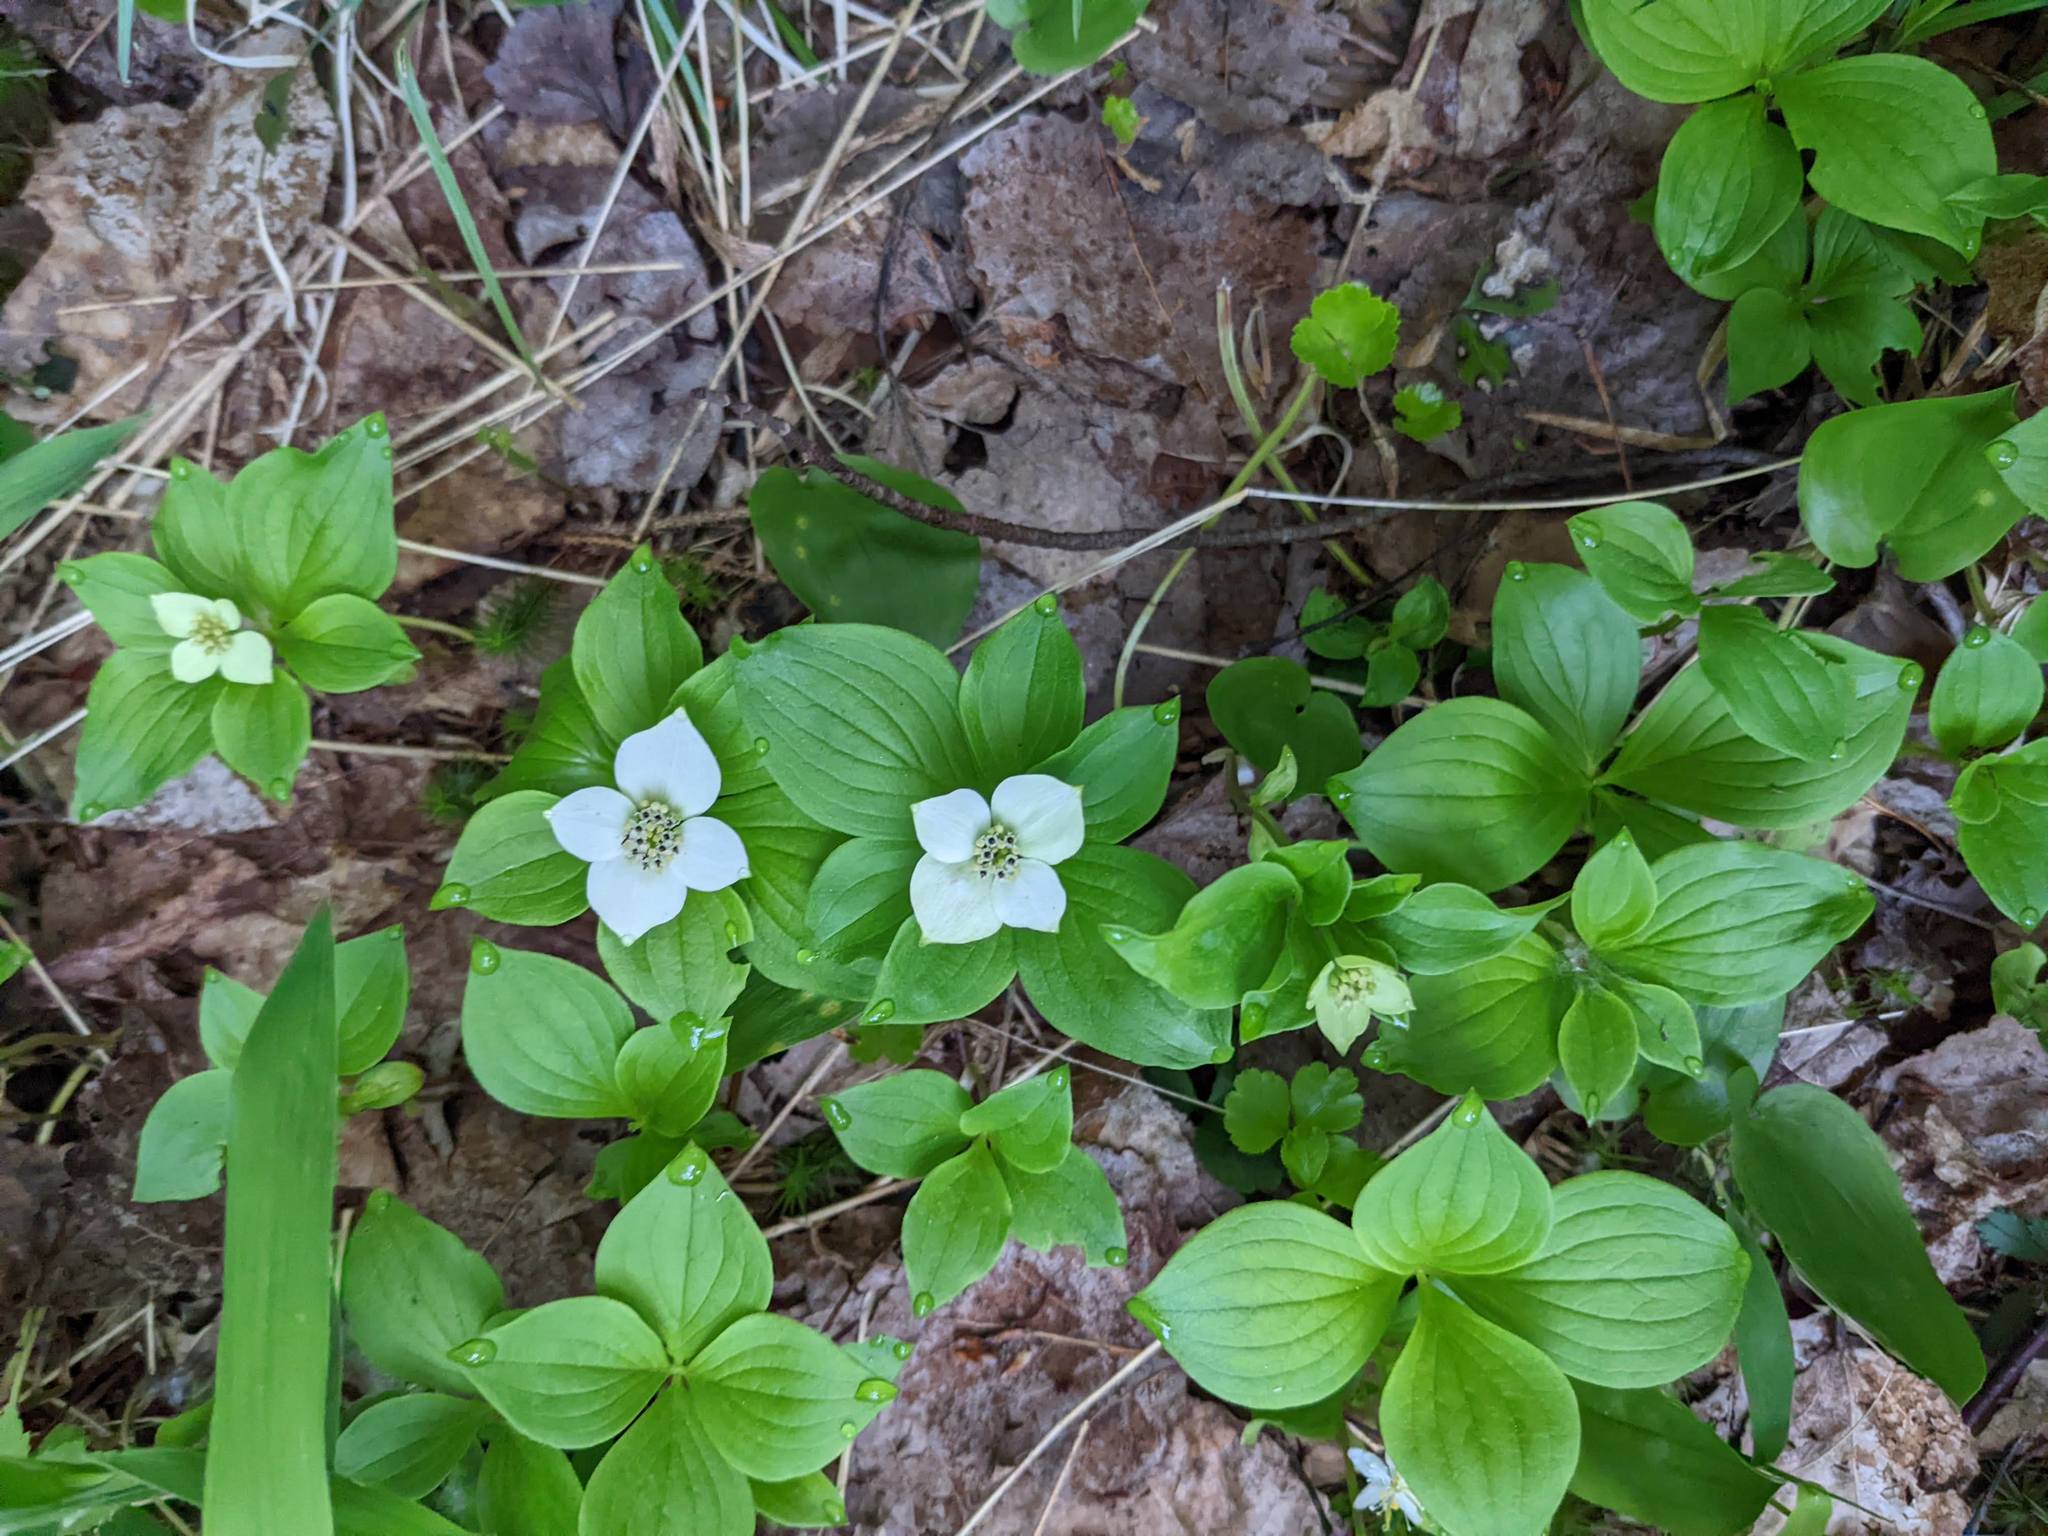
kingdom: Plantae
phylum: Tracheophyta
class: Magnoliopsida
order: Cornales
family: Cornaceae
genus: Cornus
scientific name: Cornus canadensis
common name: Creeping dogwood
